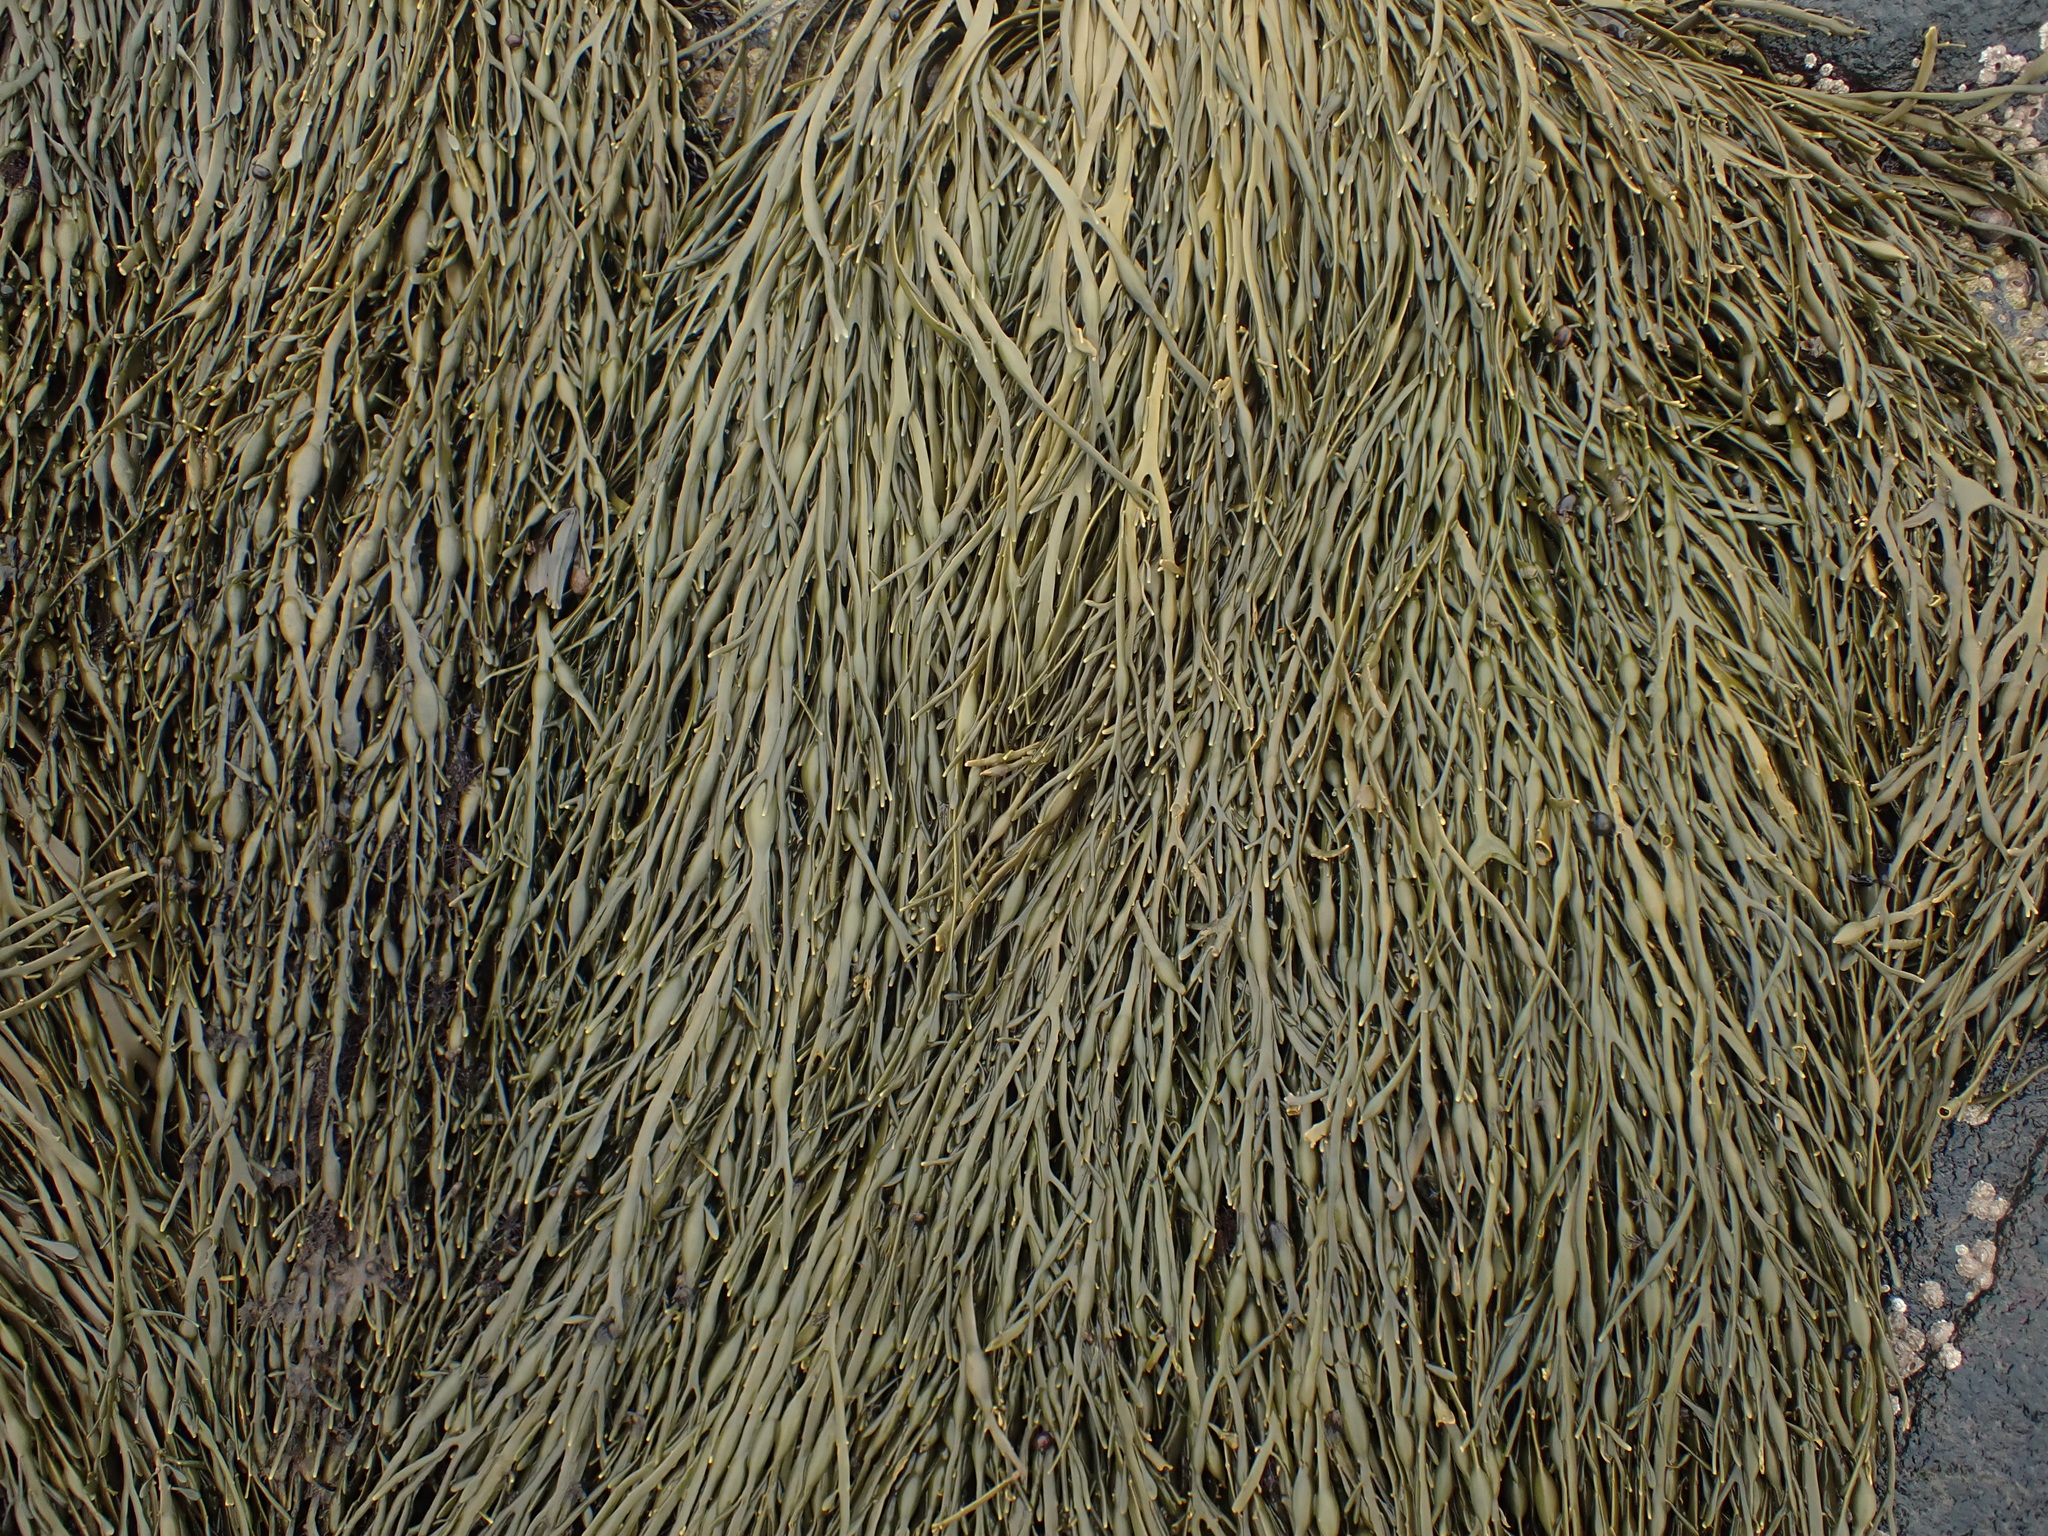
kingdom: Chromista
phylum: Ochrophyta
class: Phaeophyceae
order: Fucales
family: Fucaceae
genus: Ascophyllum
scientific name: Ascophyllum nodosum
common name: Knotted wrack
